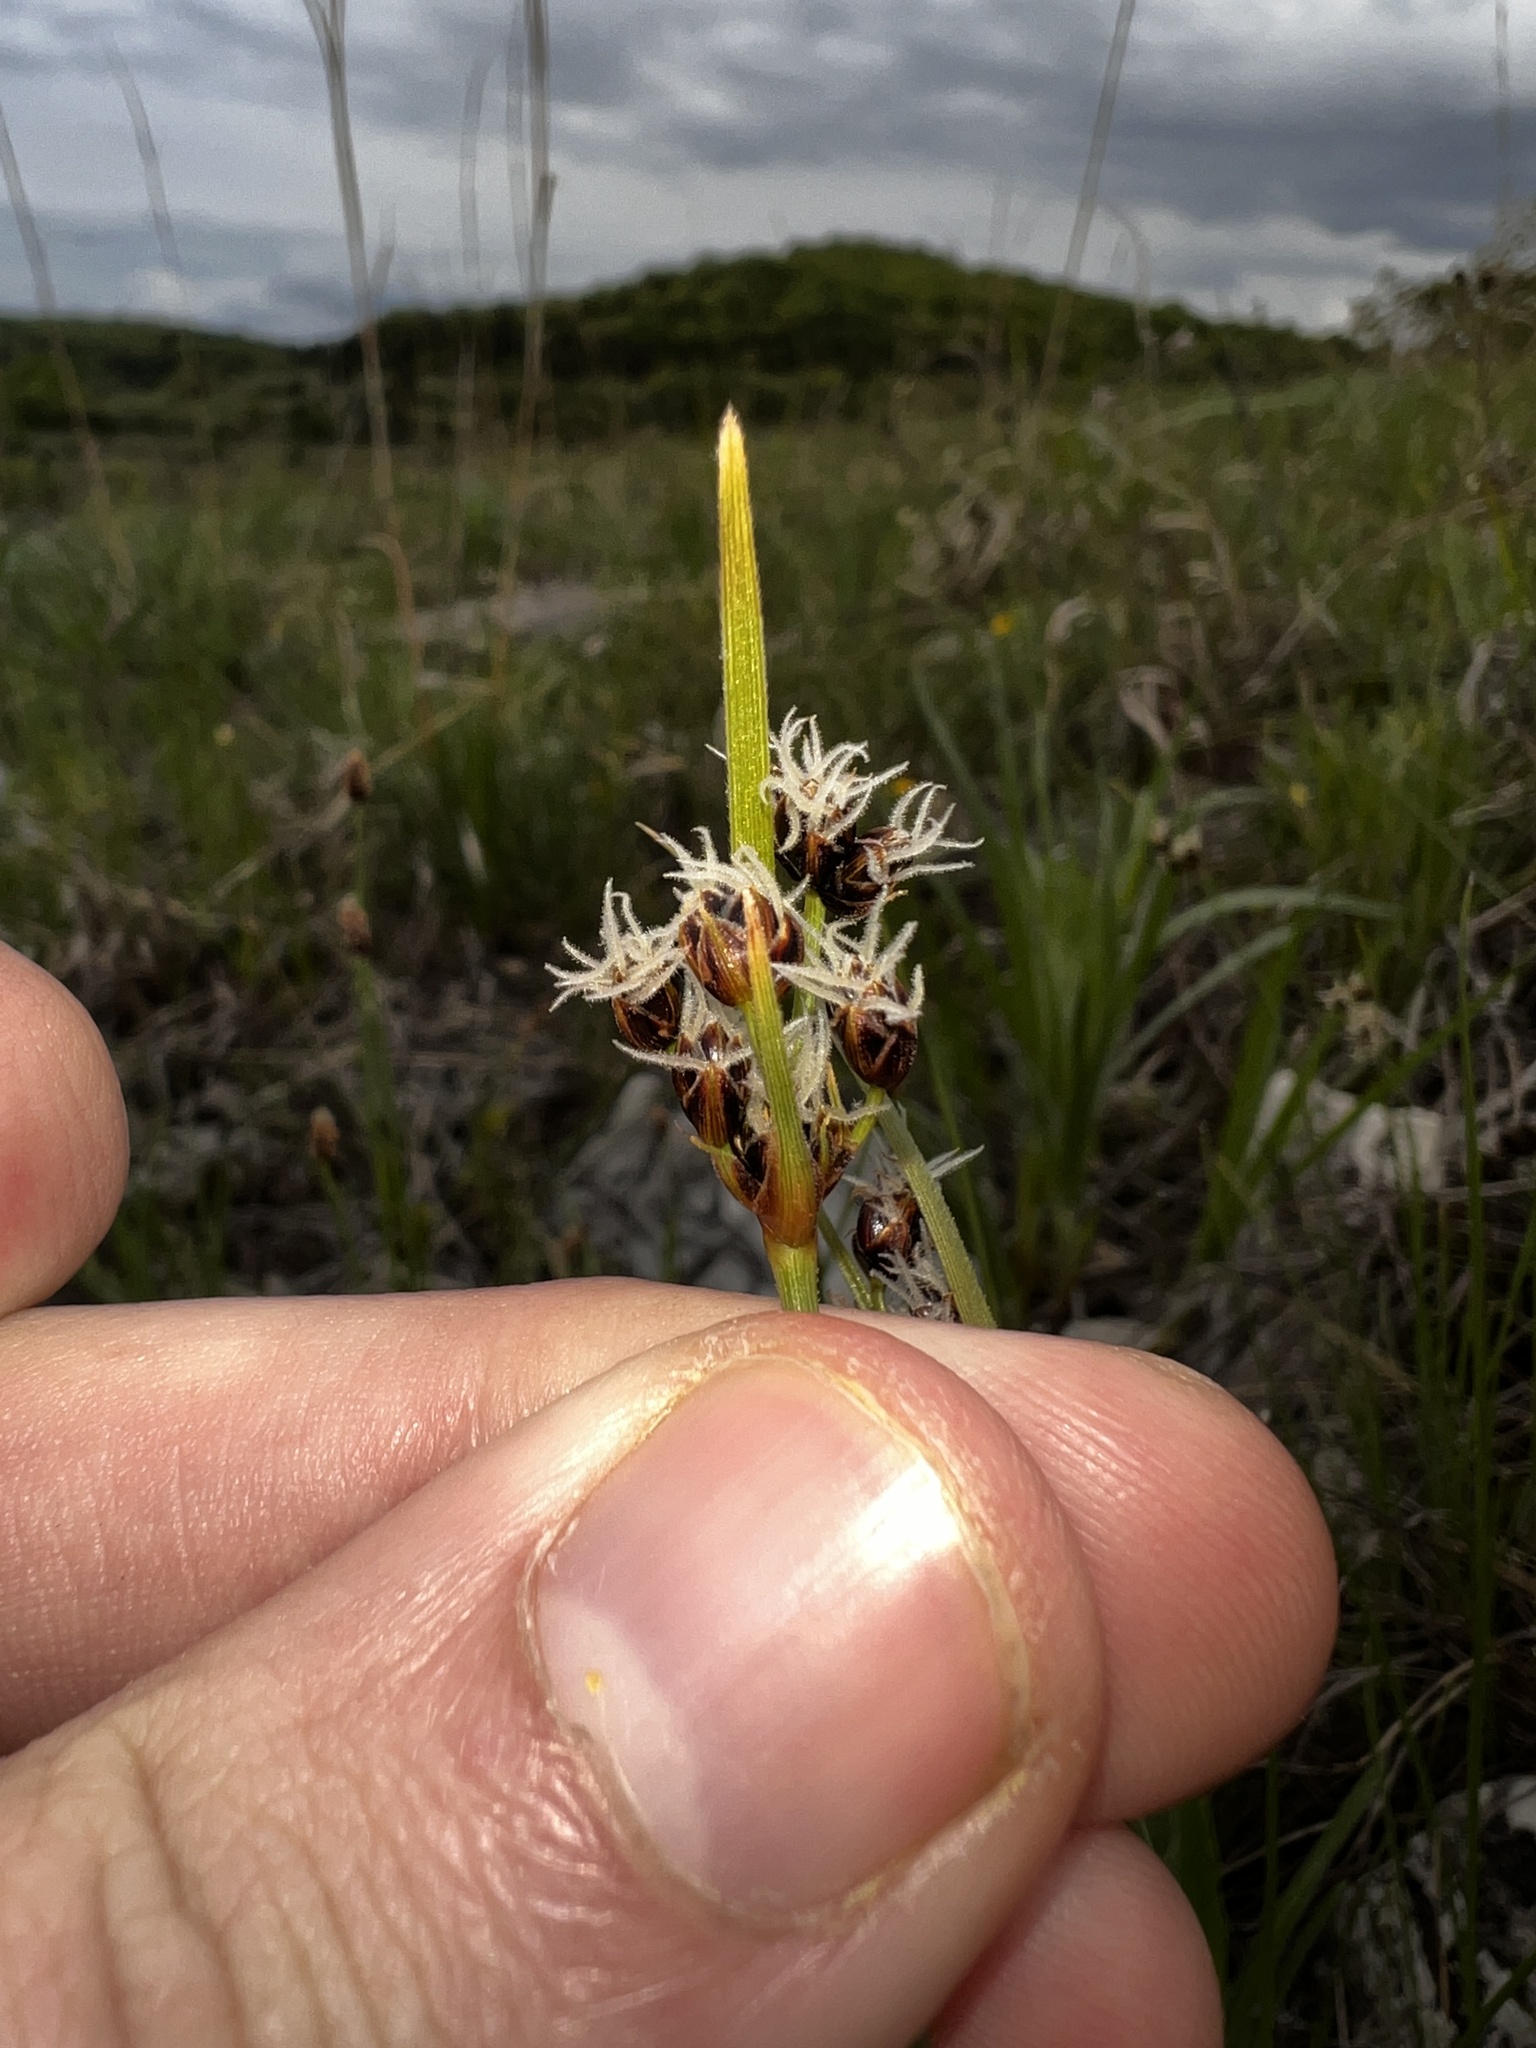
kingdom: Plantae
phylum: Tracheophyta
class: Liliopsida
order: Poales
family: Cyperaceae
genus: Fimbristylis
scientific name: Fimbristylis puberula
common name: Hairy fimbristylis
